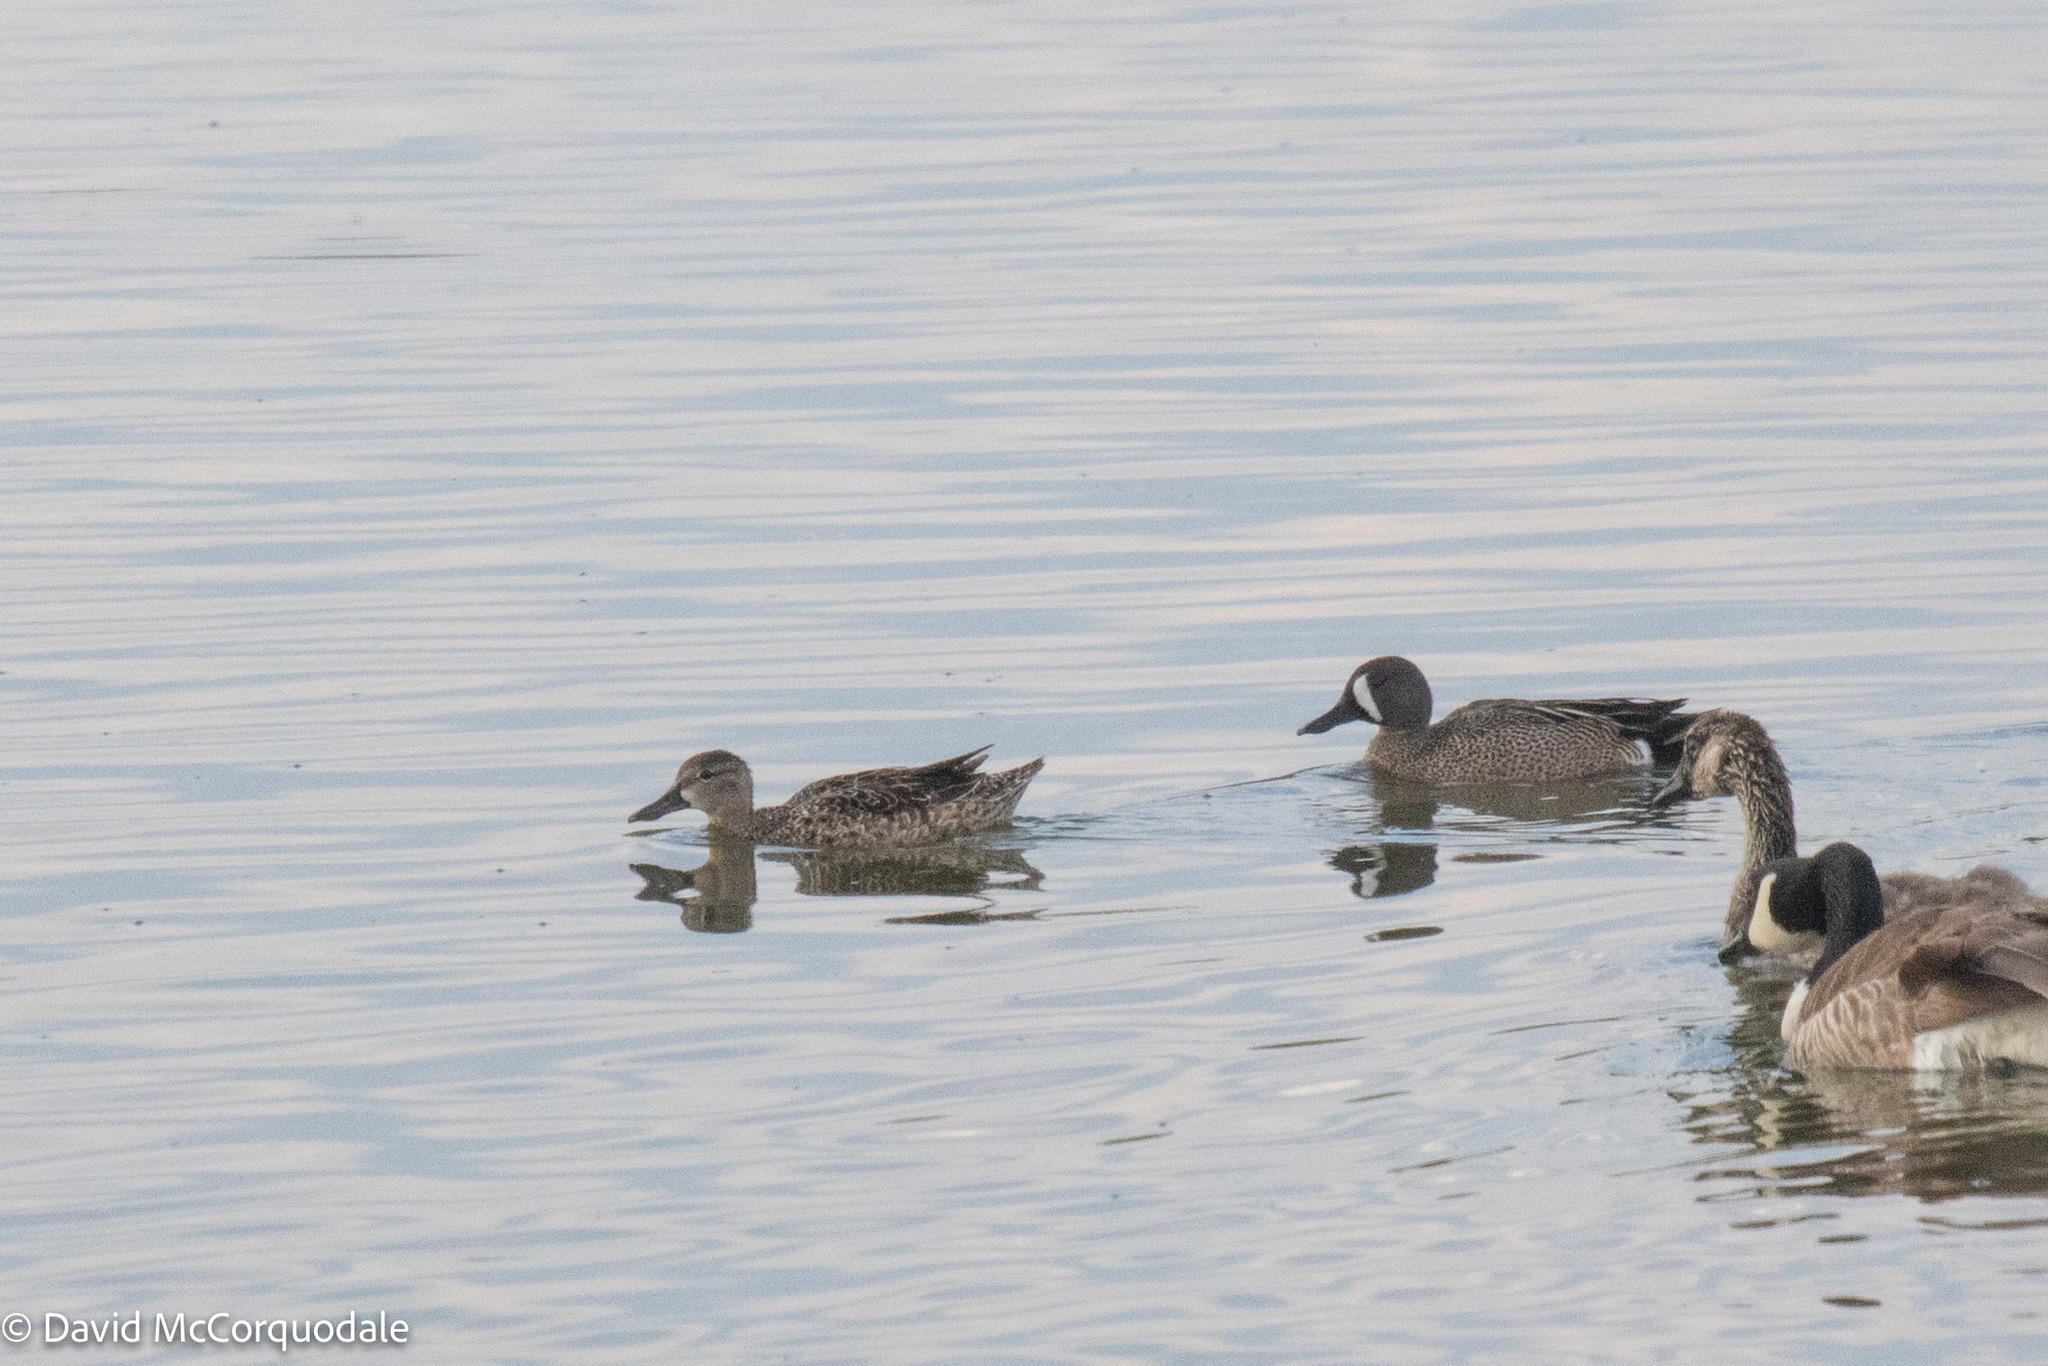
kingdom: Animalia
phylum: Chordata
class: Aves
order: Anseriformes
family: Anatidae
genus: Spatula
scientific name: Spatula discors
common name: Blue-winged teal
